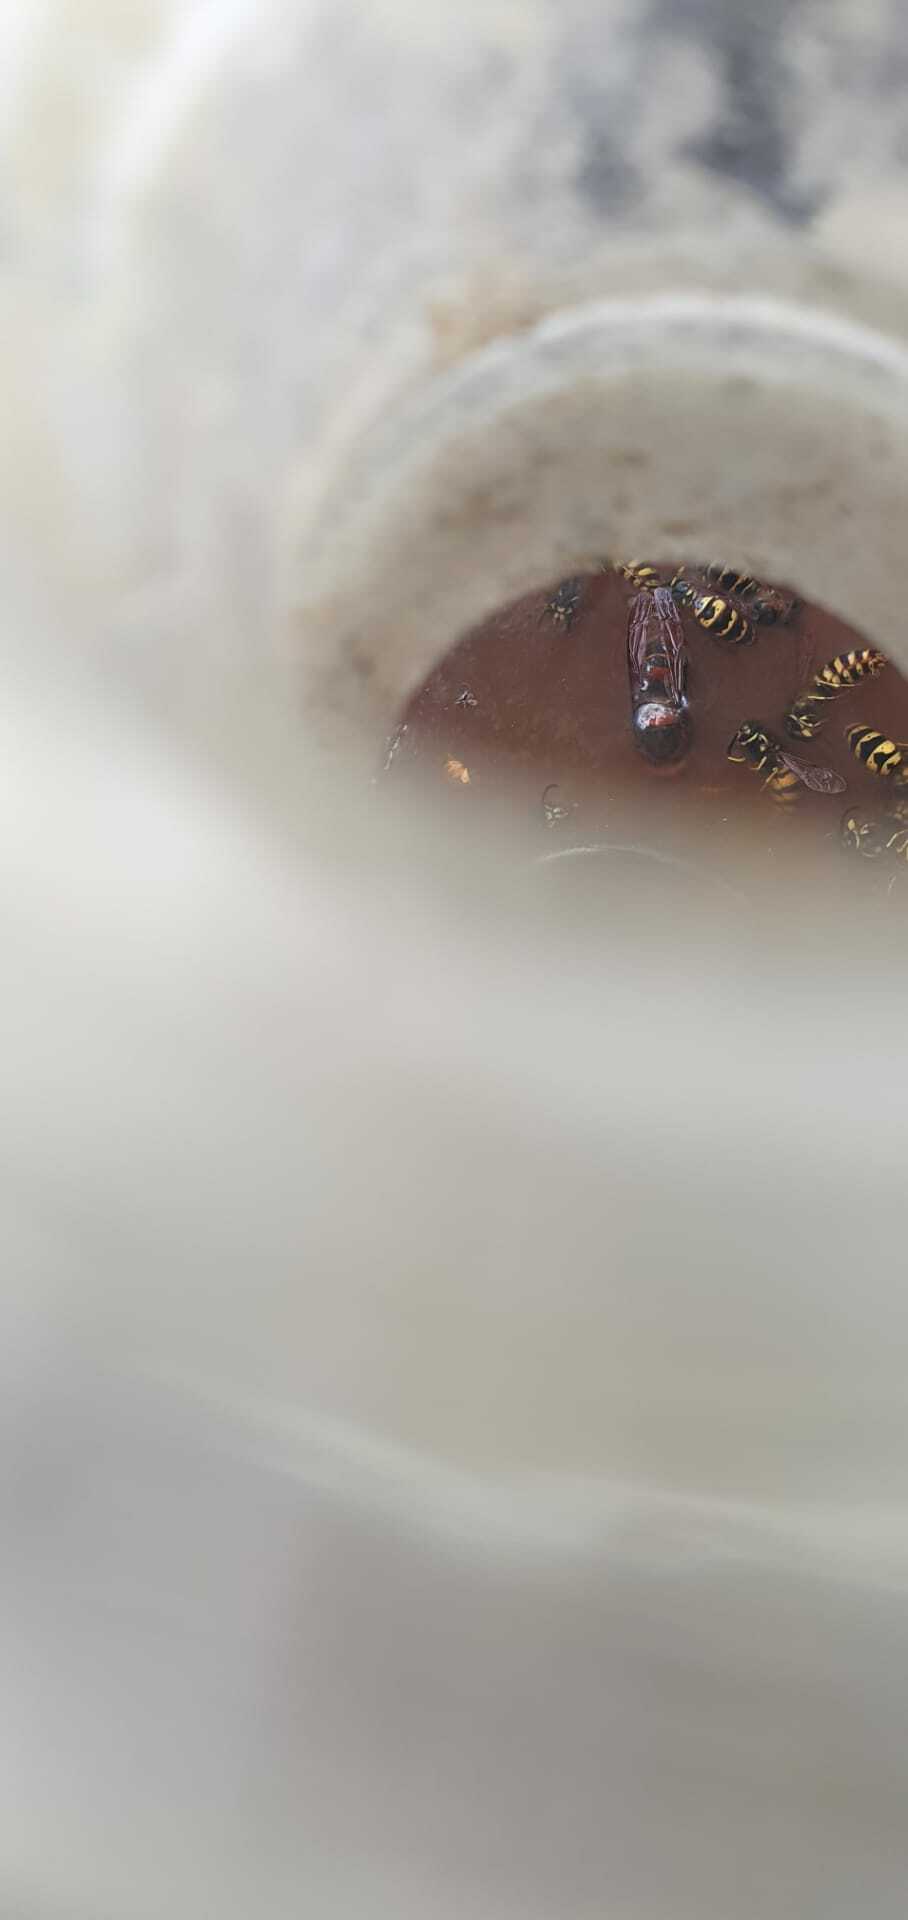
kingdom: Animalia
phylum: Arthropoda
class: Insecta
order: Hymenoptera
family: Vespidae
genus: Vespa
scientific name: Vespa crabro
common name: Hornet
